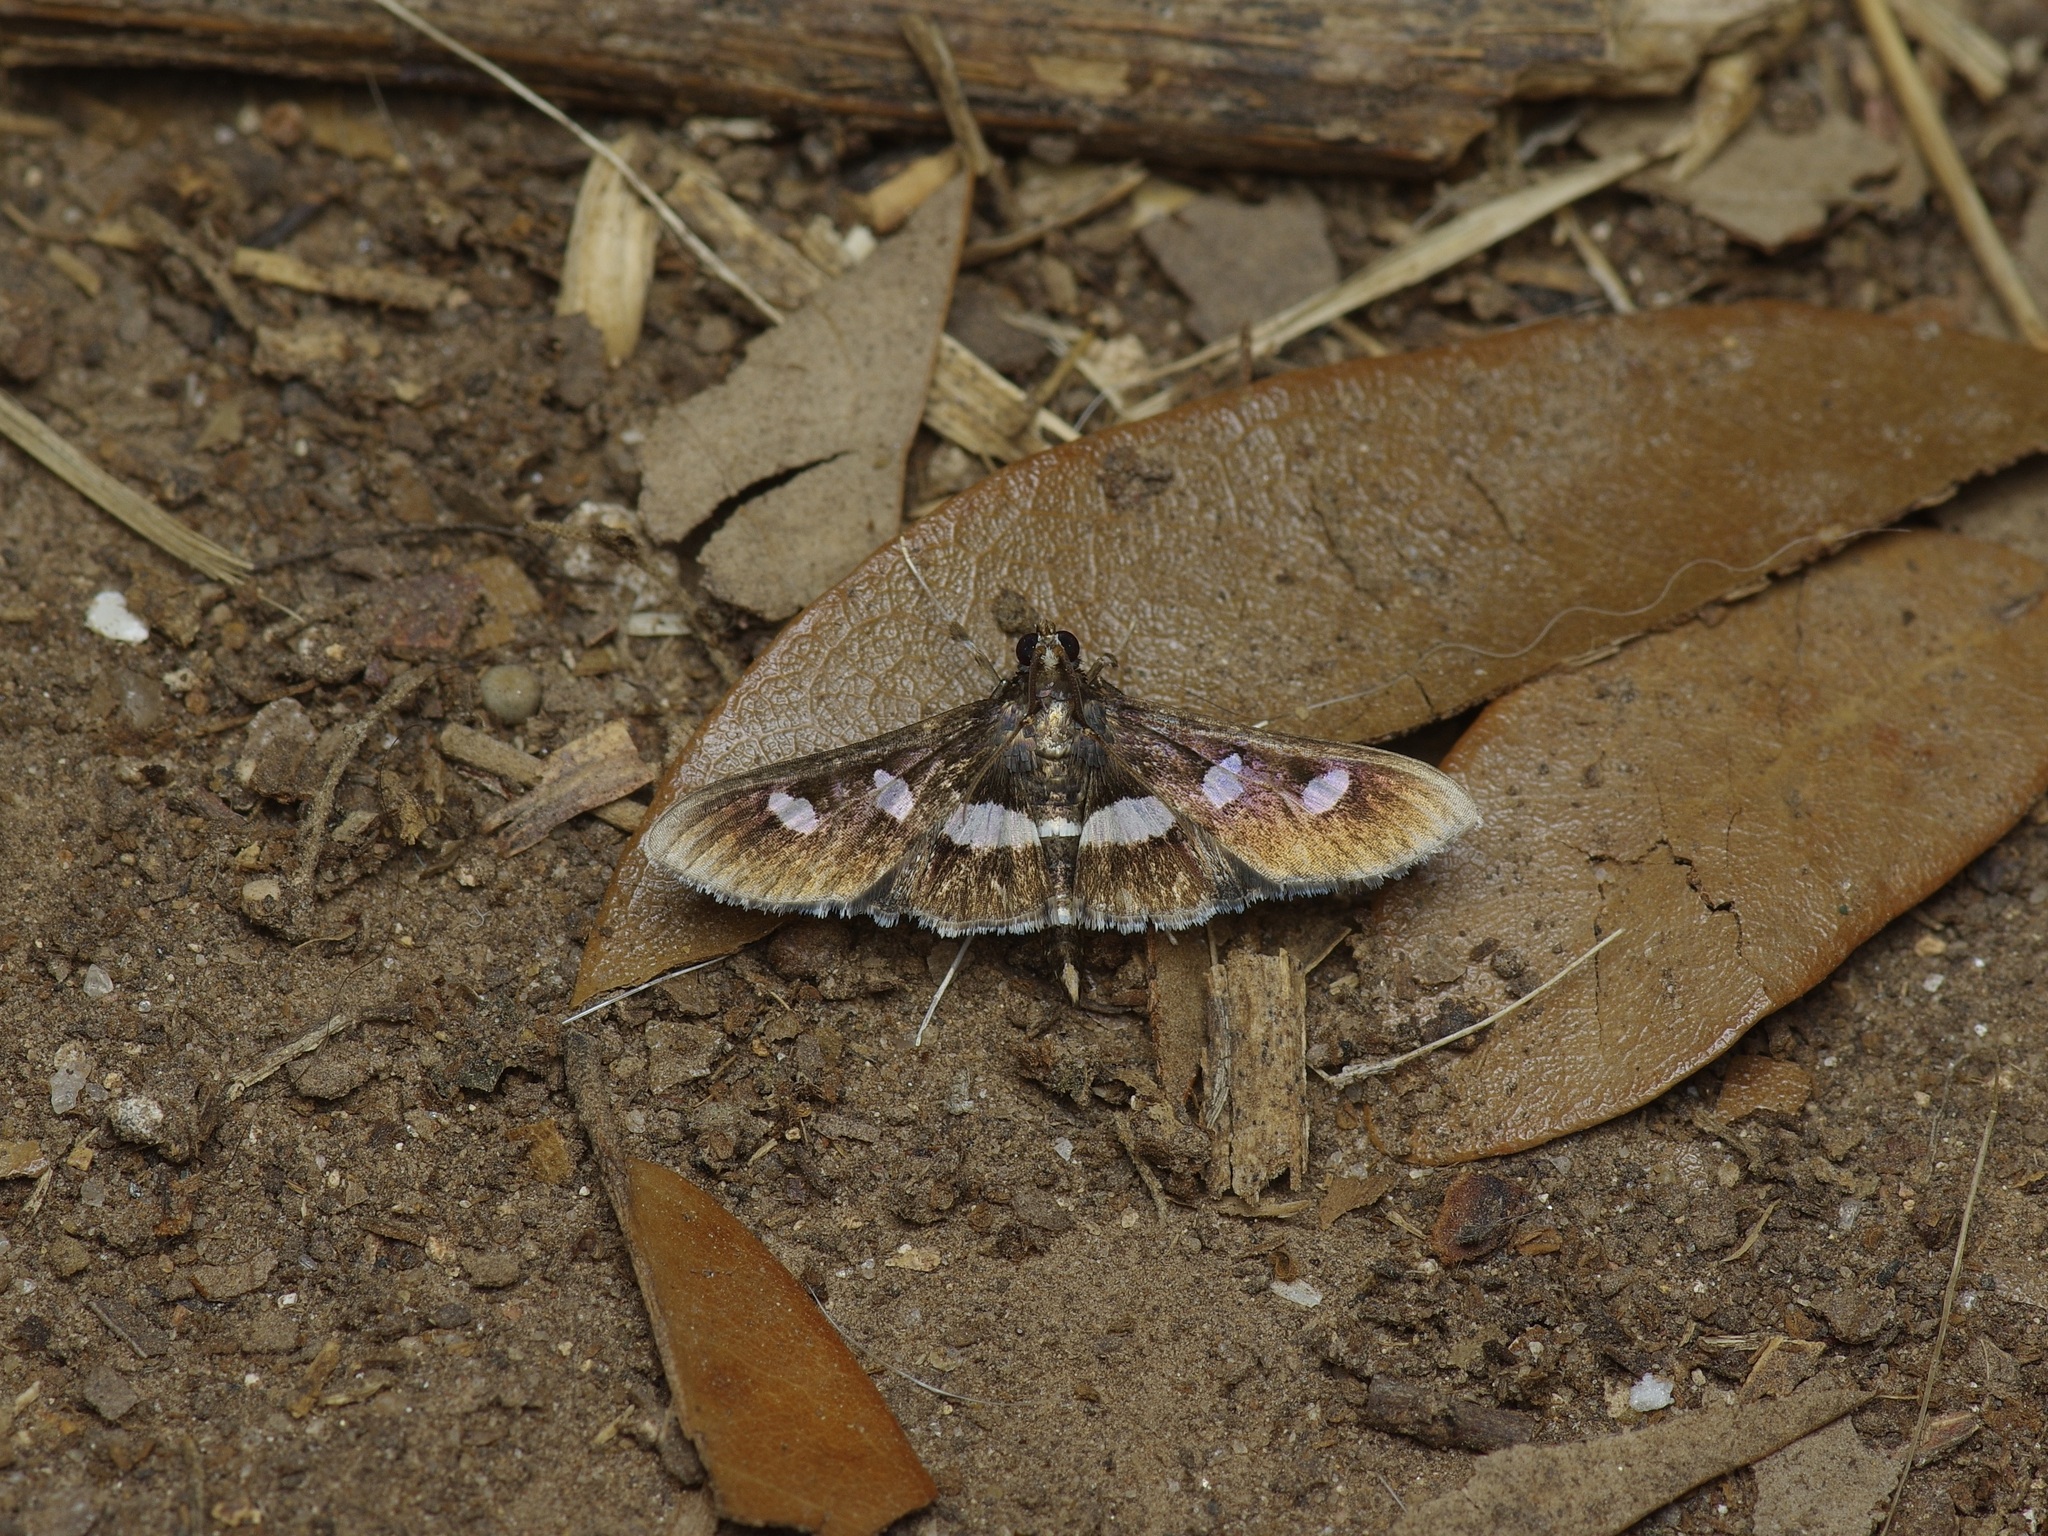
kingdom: Animalia
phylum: Arthropoda
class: Insecta
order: Lepidoptera
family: Crambidae
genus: Desmia
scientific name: Desmia funeralis
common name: Grape leaf folder moth
